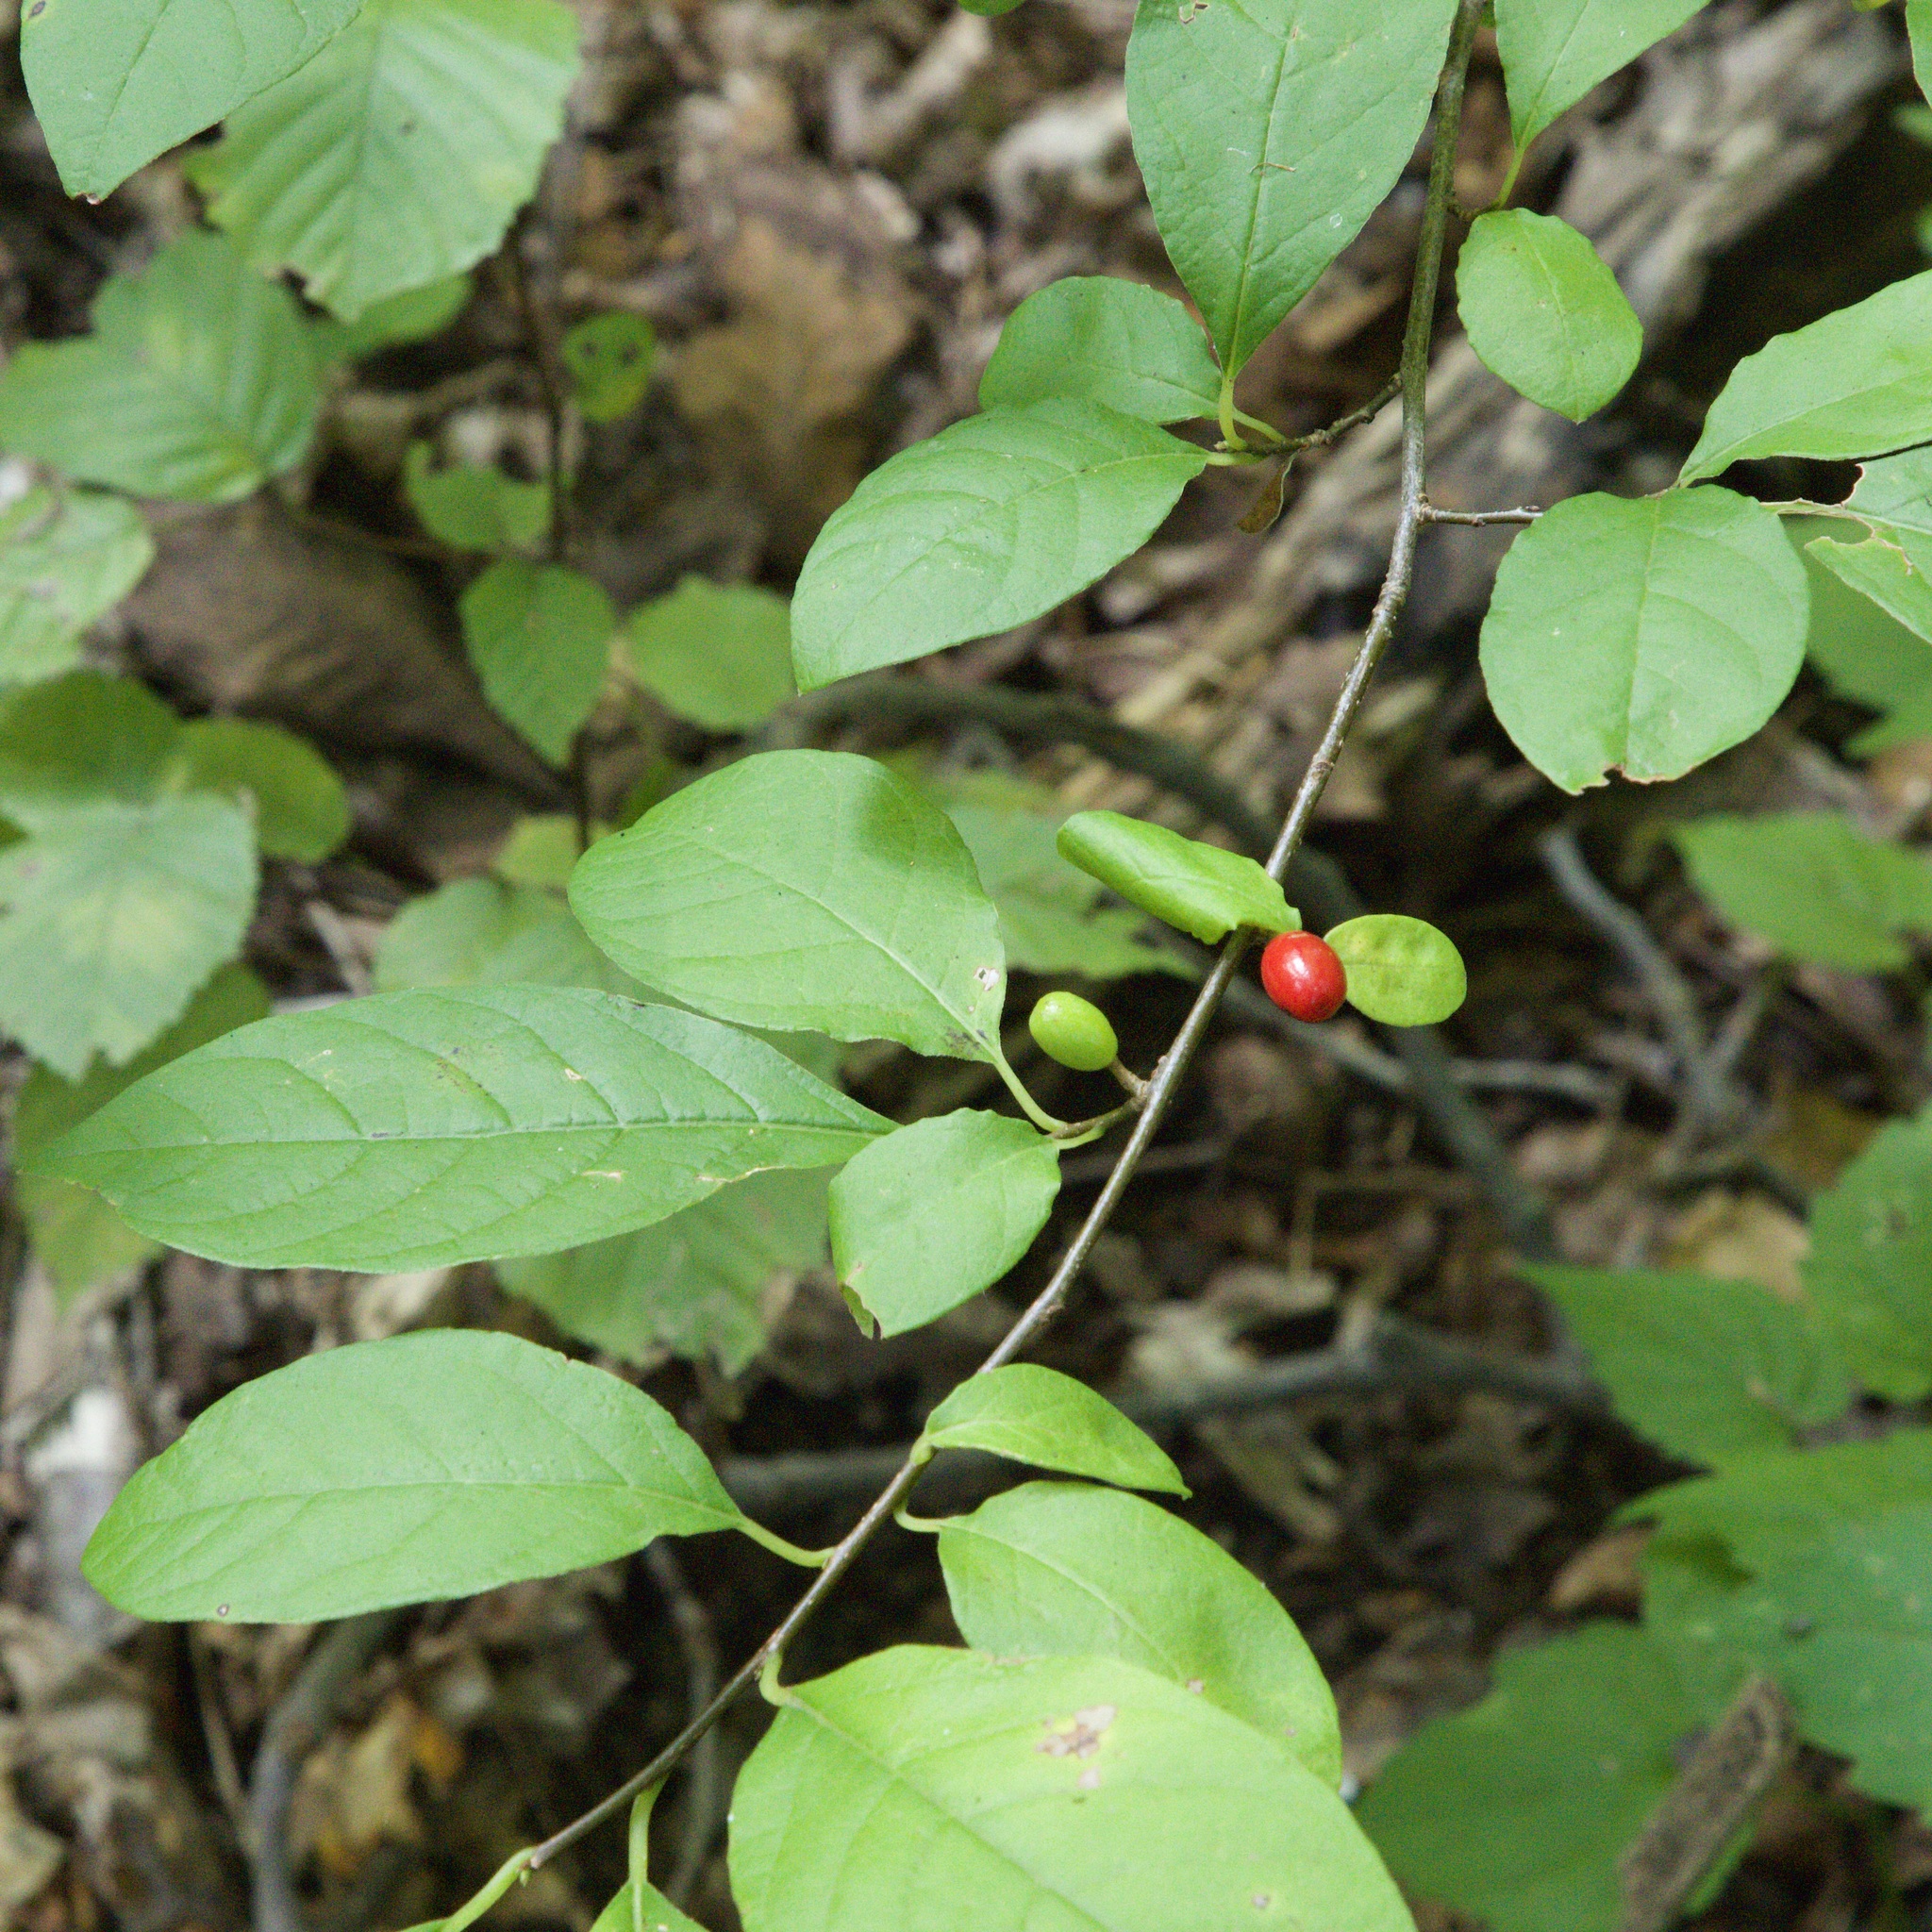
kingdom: Plantae
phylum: Tracheophyta
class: Magnoliopsida
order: Laurales
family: Lauraceae
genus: Lindera
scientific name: Lindera benzoin
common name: Spicebush
